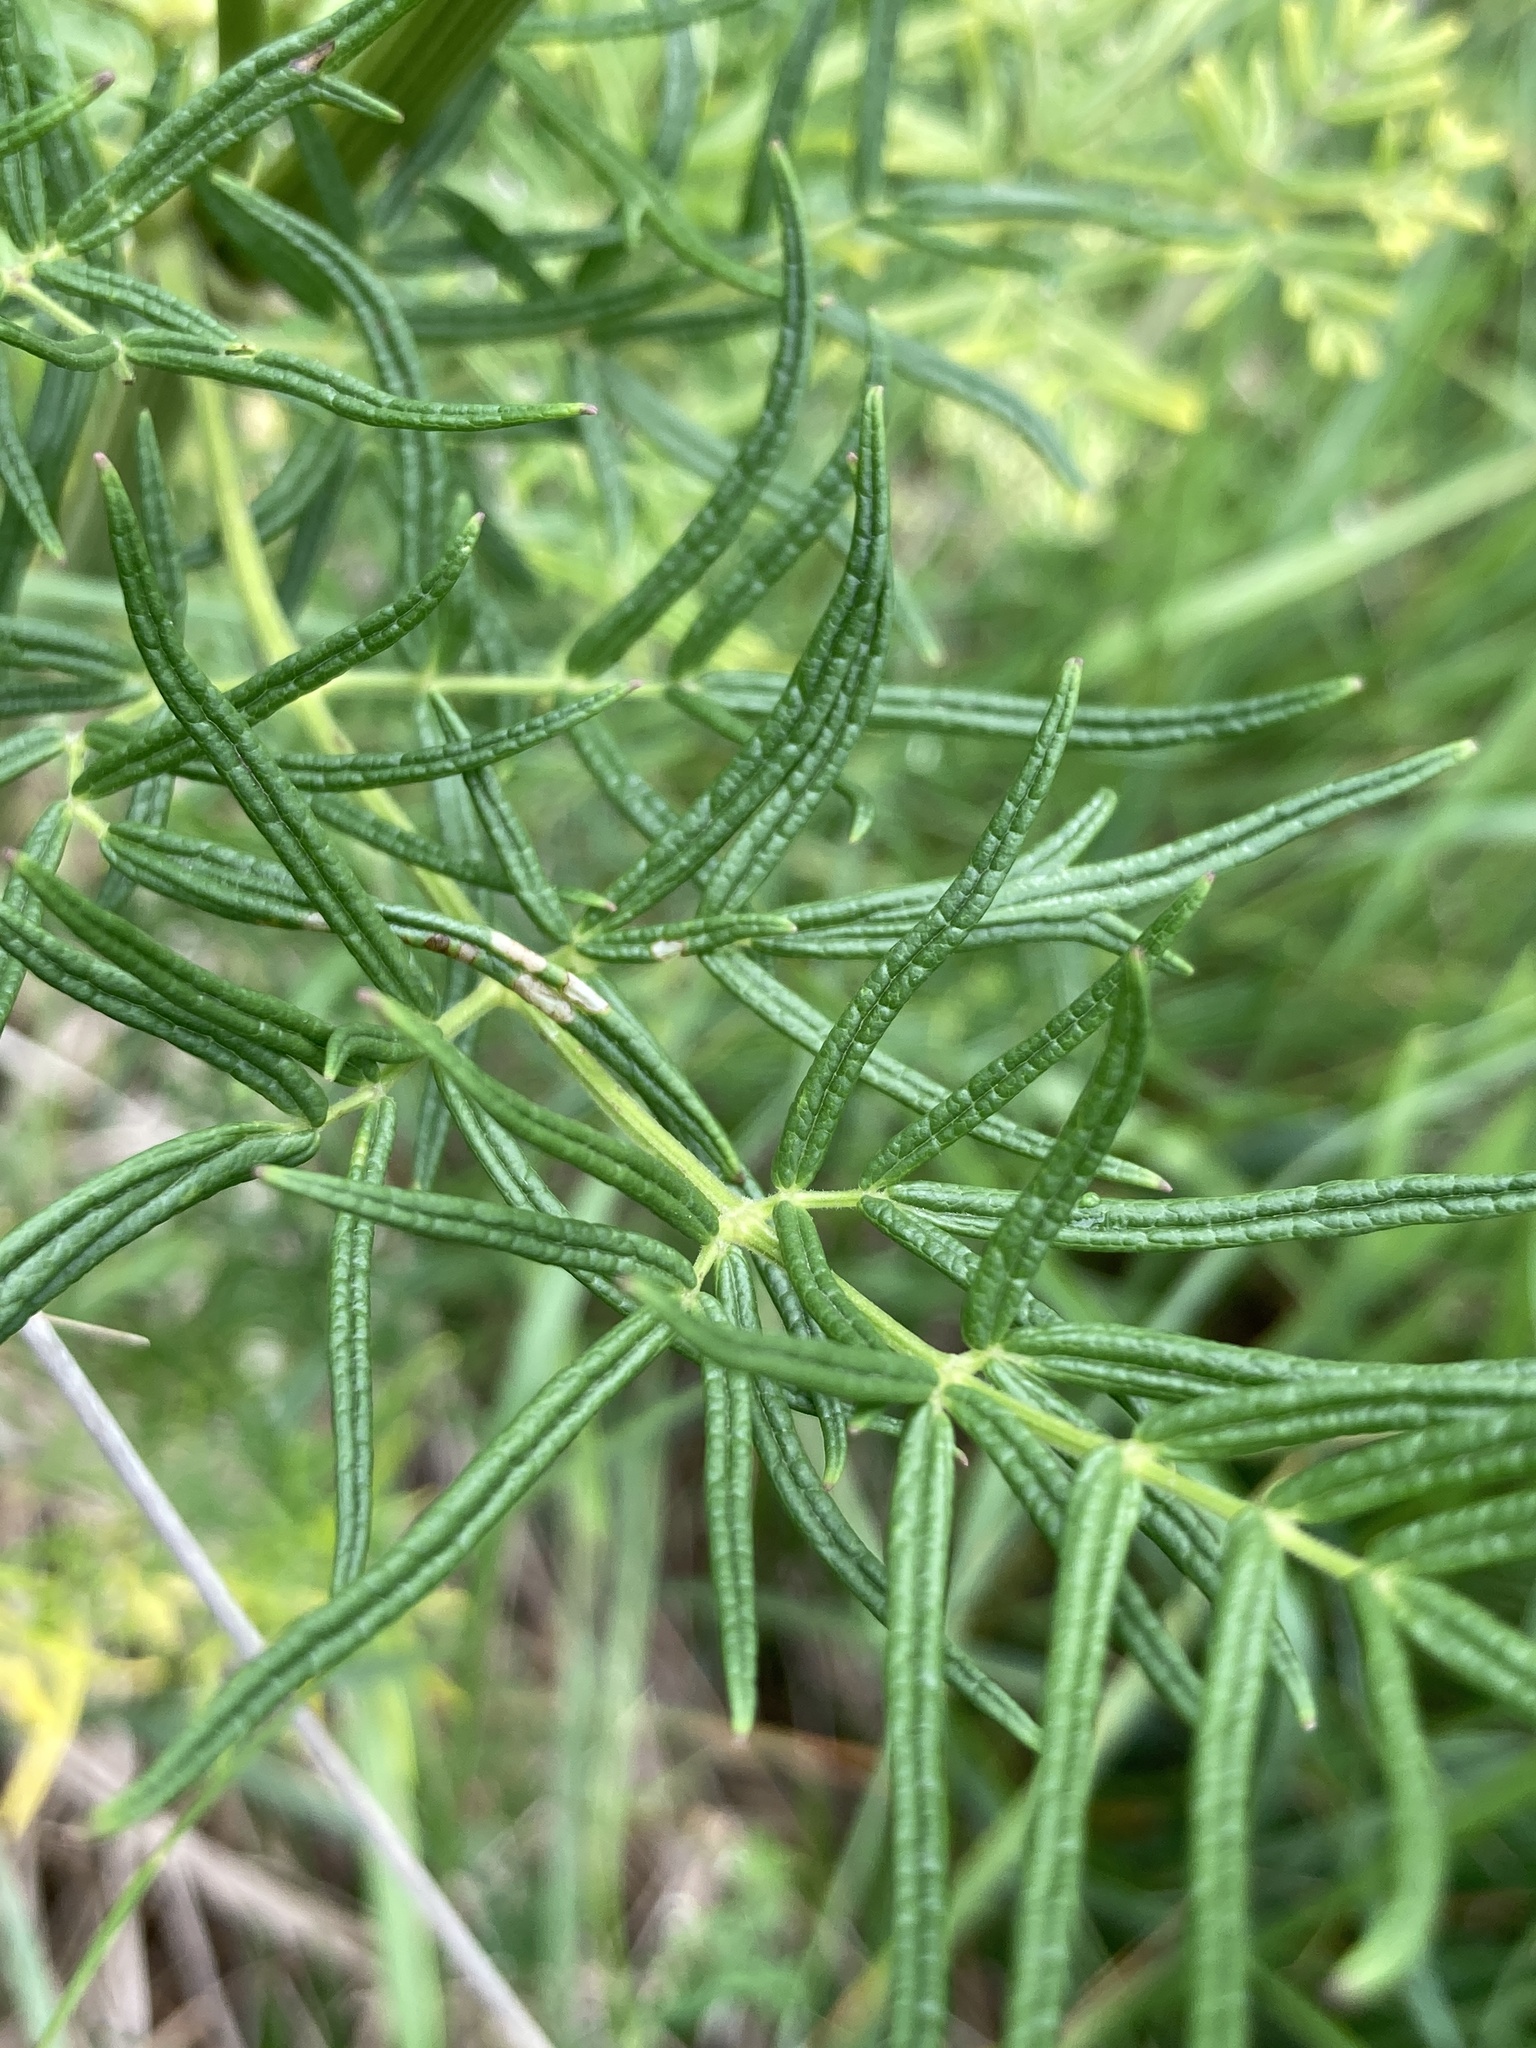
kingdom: Plantae
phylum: Tracheophyta
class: Magnoliopsida
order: Ranunculales
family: Ranunculaceae
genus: Thalictrum
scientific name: Thalictrum lucidum
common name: Shining meadow-rue
